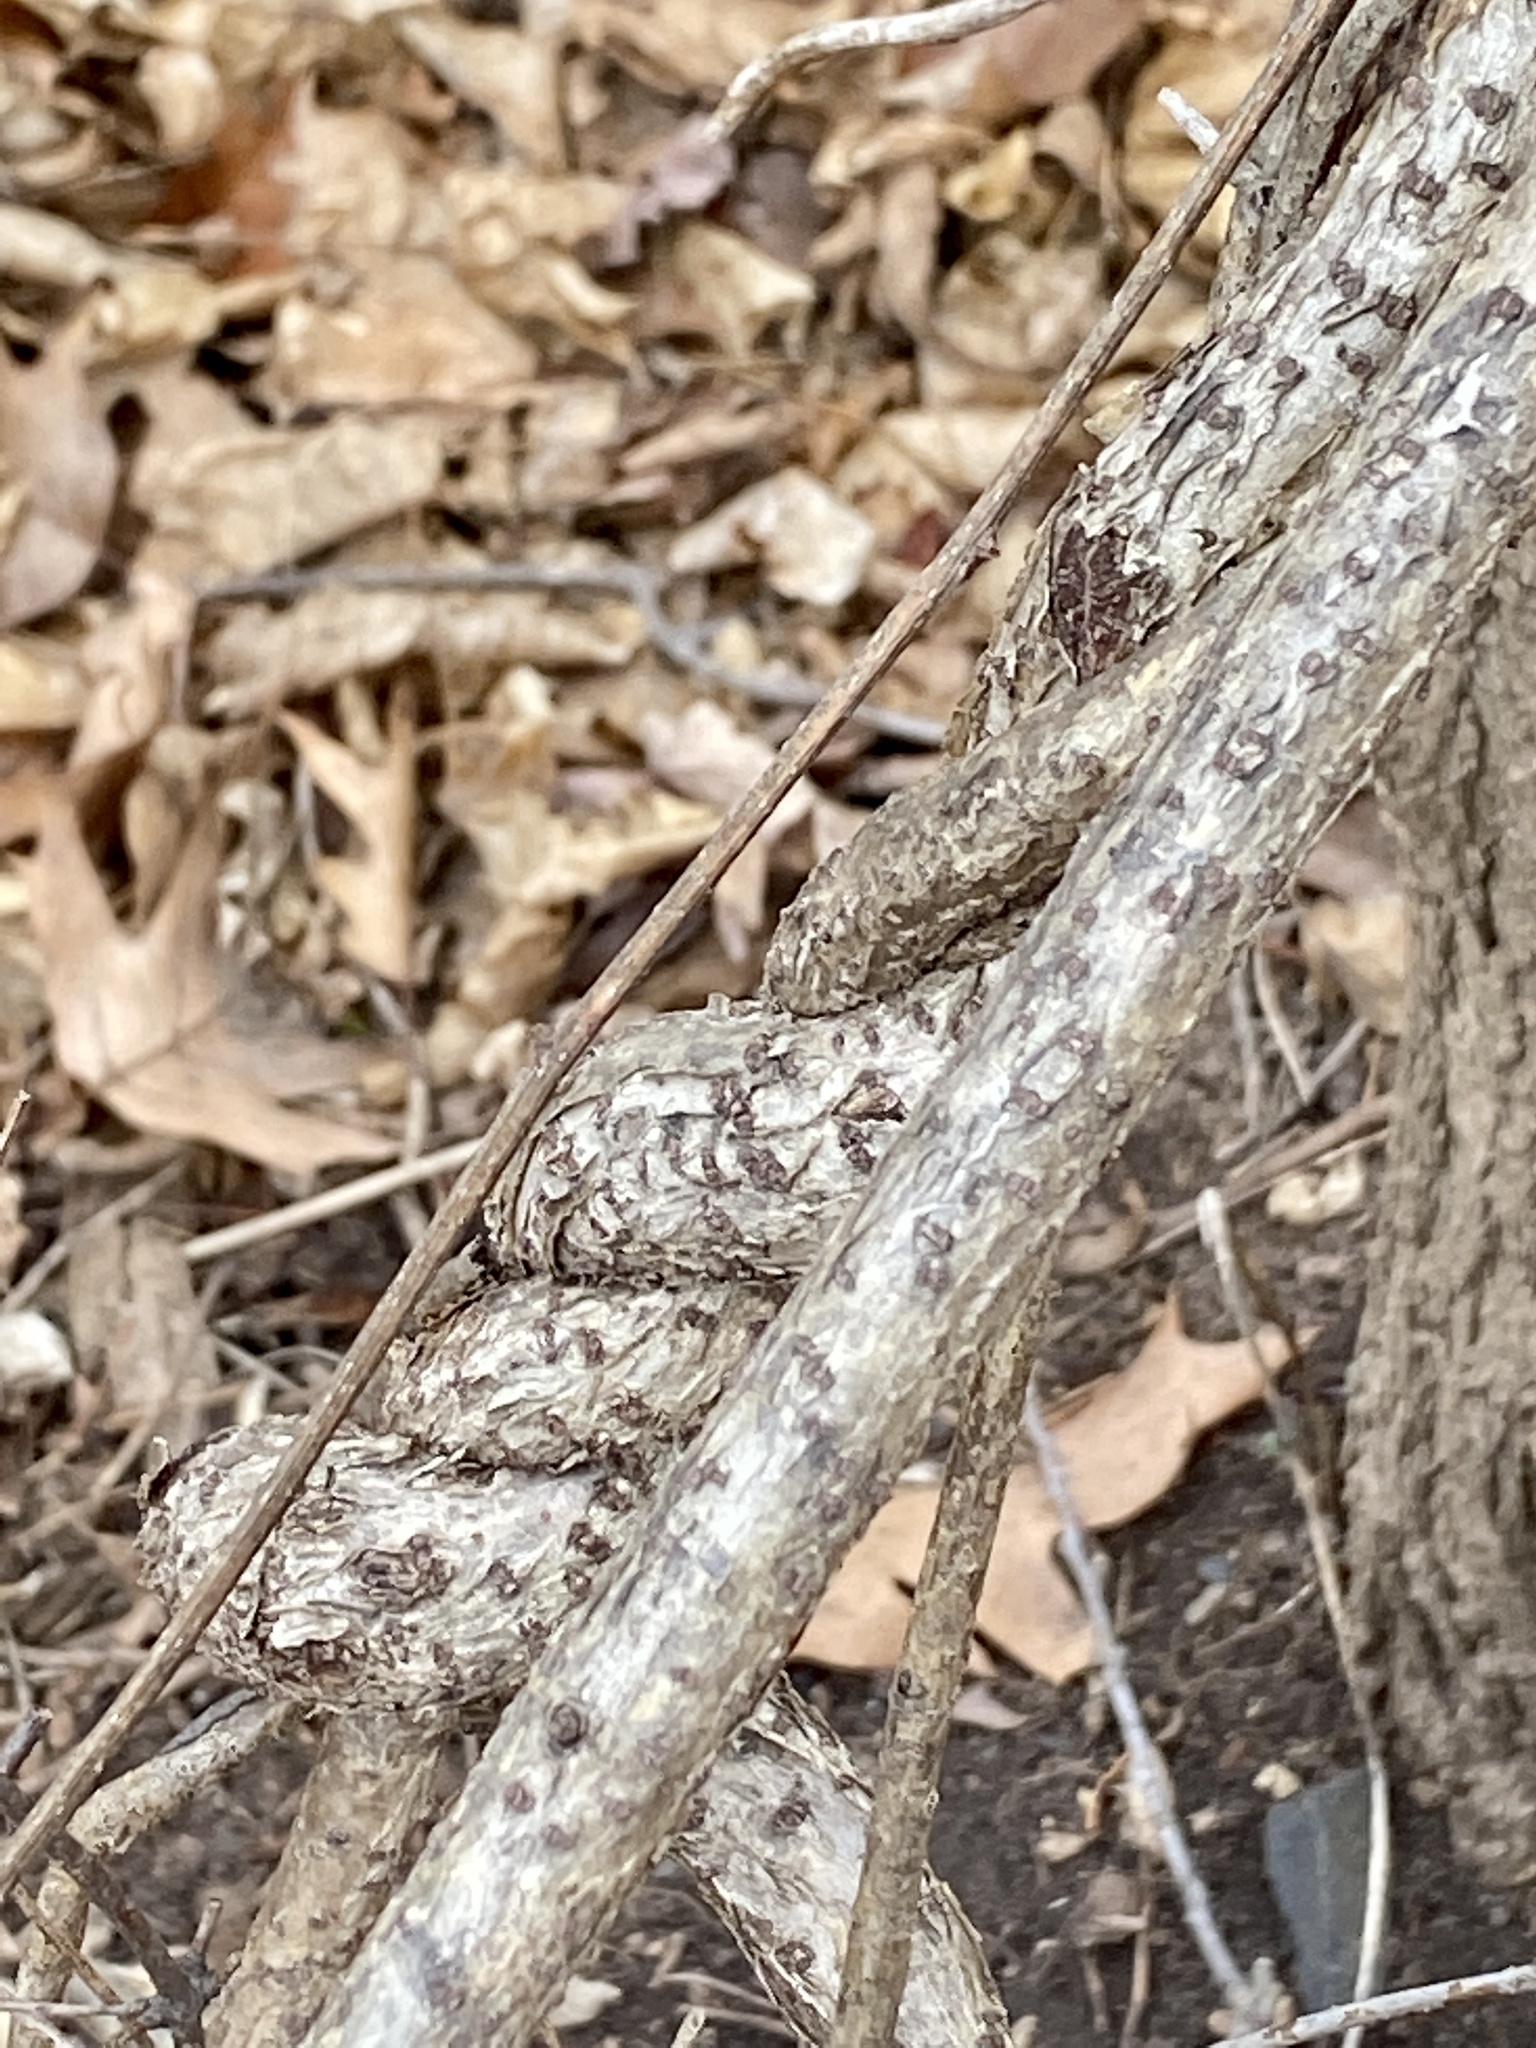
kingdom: Plantae
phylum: Tracheophyta
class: Magnoliopsida
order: Celastrales
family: Celastraceae
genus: Celastrus
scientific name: Celastrus orbiculatus
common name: Oriental bittersweet
